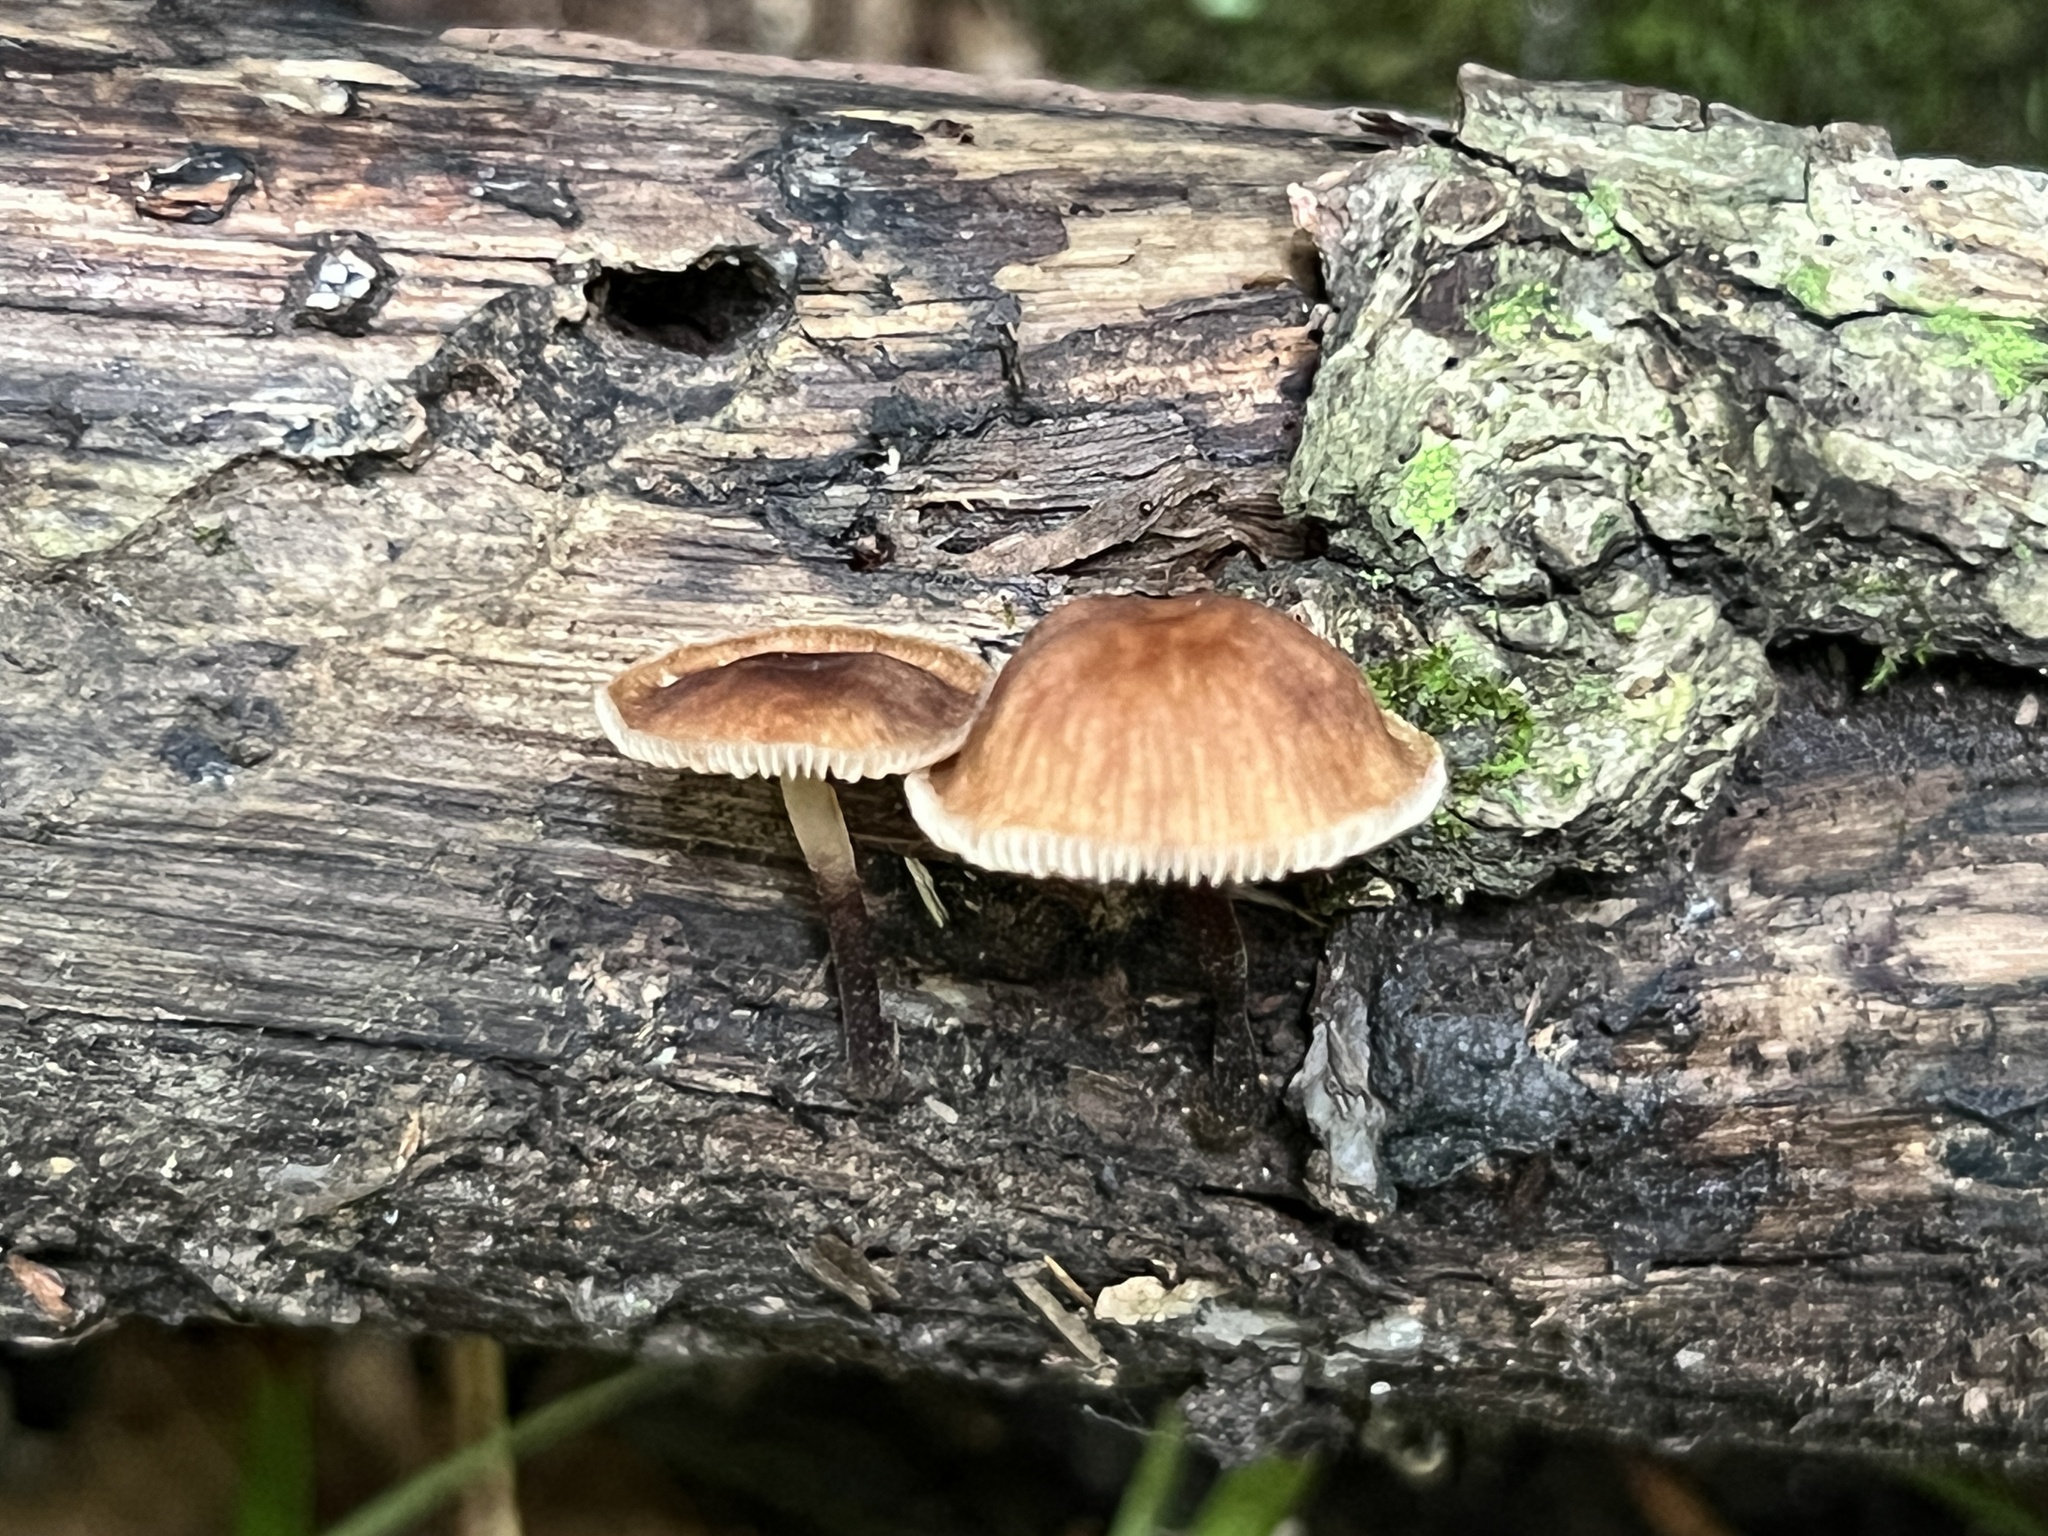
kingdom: Fungi
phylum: Basidiomycota
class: Agaricomycetes
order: Agaricales
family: Omphalotaceae
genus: Collybiopsis
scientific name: Collybiopsis dichroa
